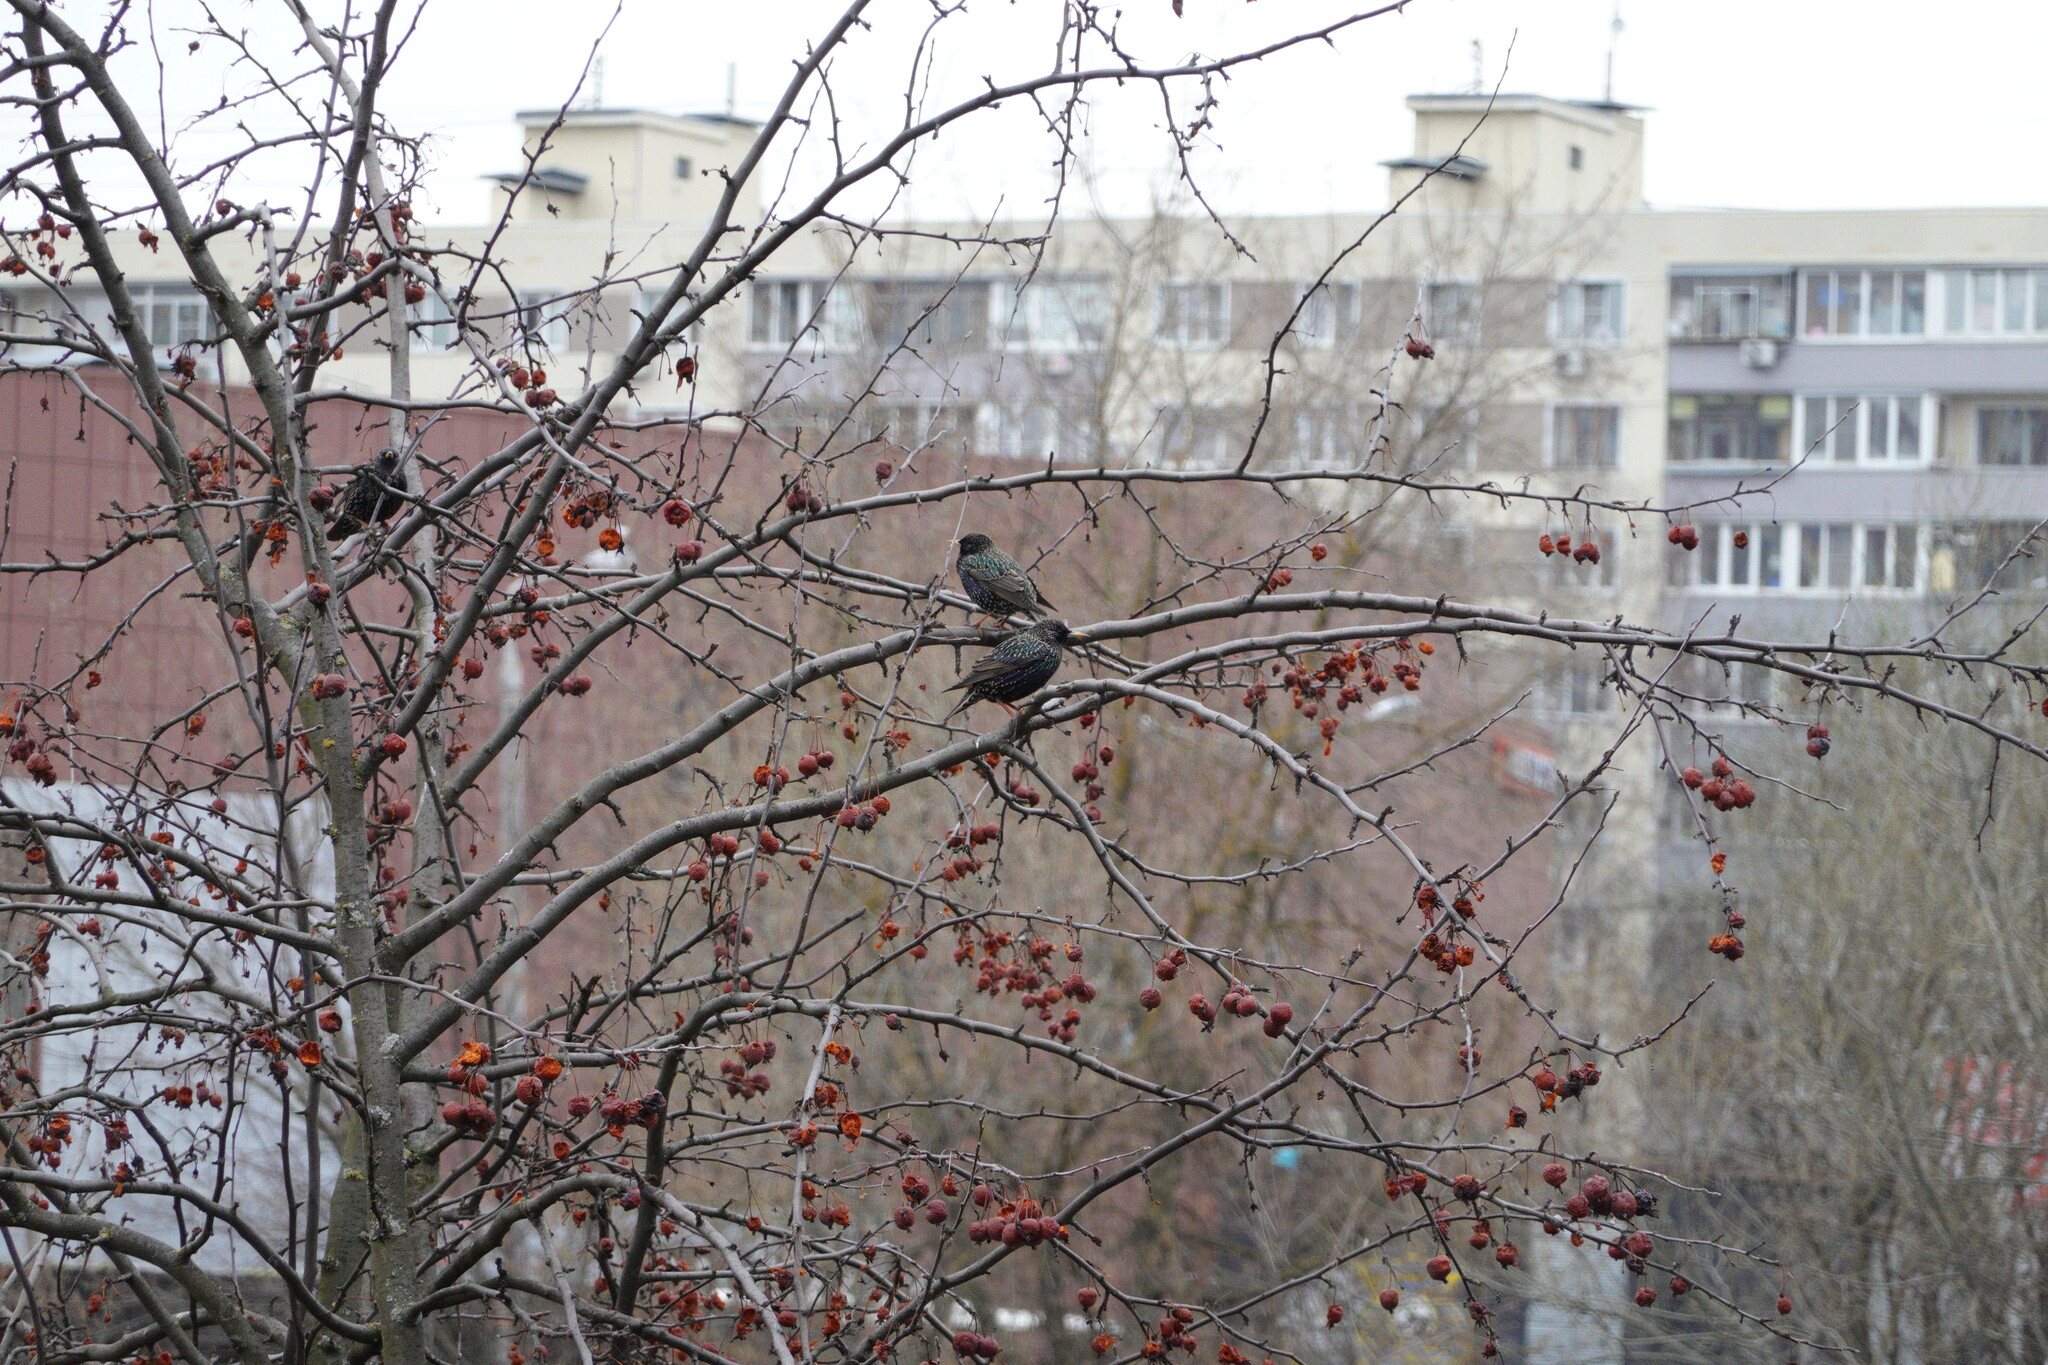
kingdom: Animalia
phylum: Chordata
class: Aves
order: Passeriformes
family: Sturnidae
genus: Sturnus
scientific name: Sturnus vulgaris
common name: Common starling
